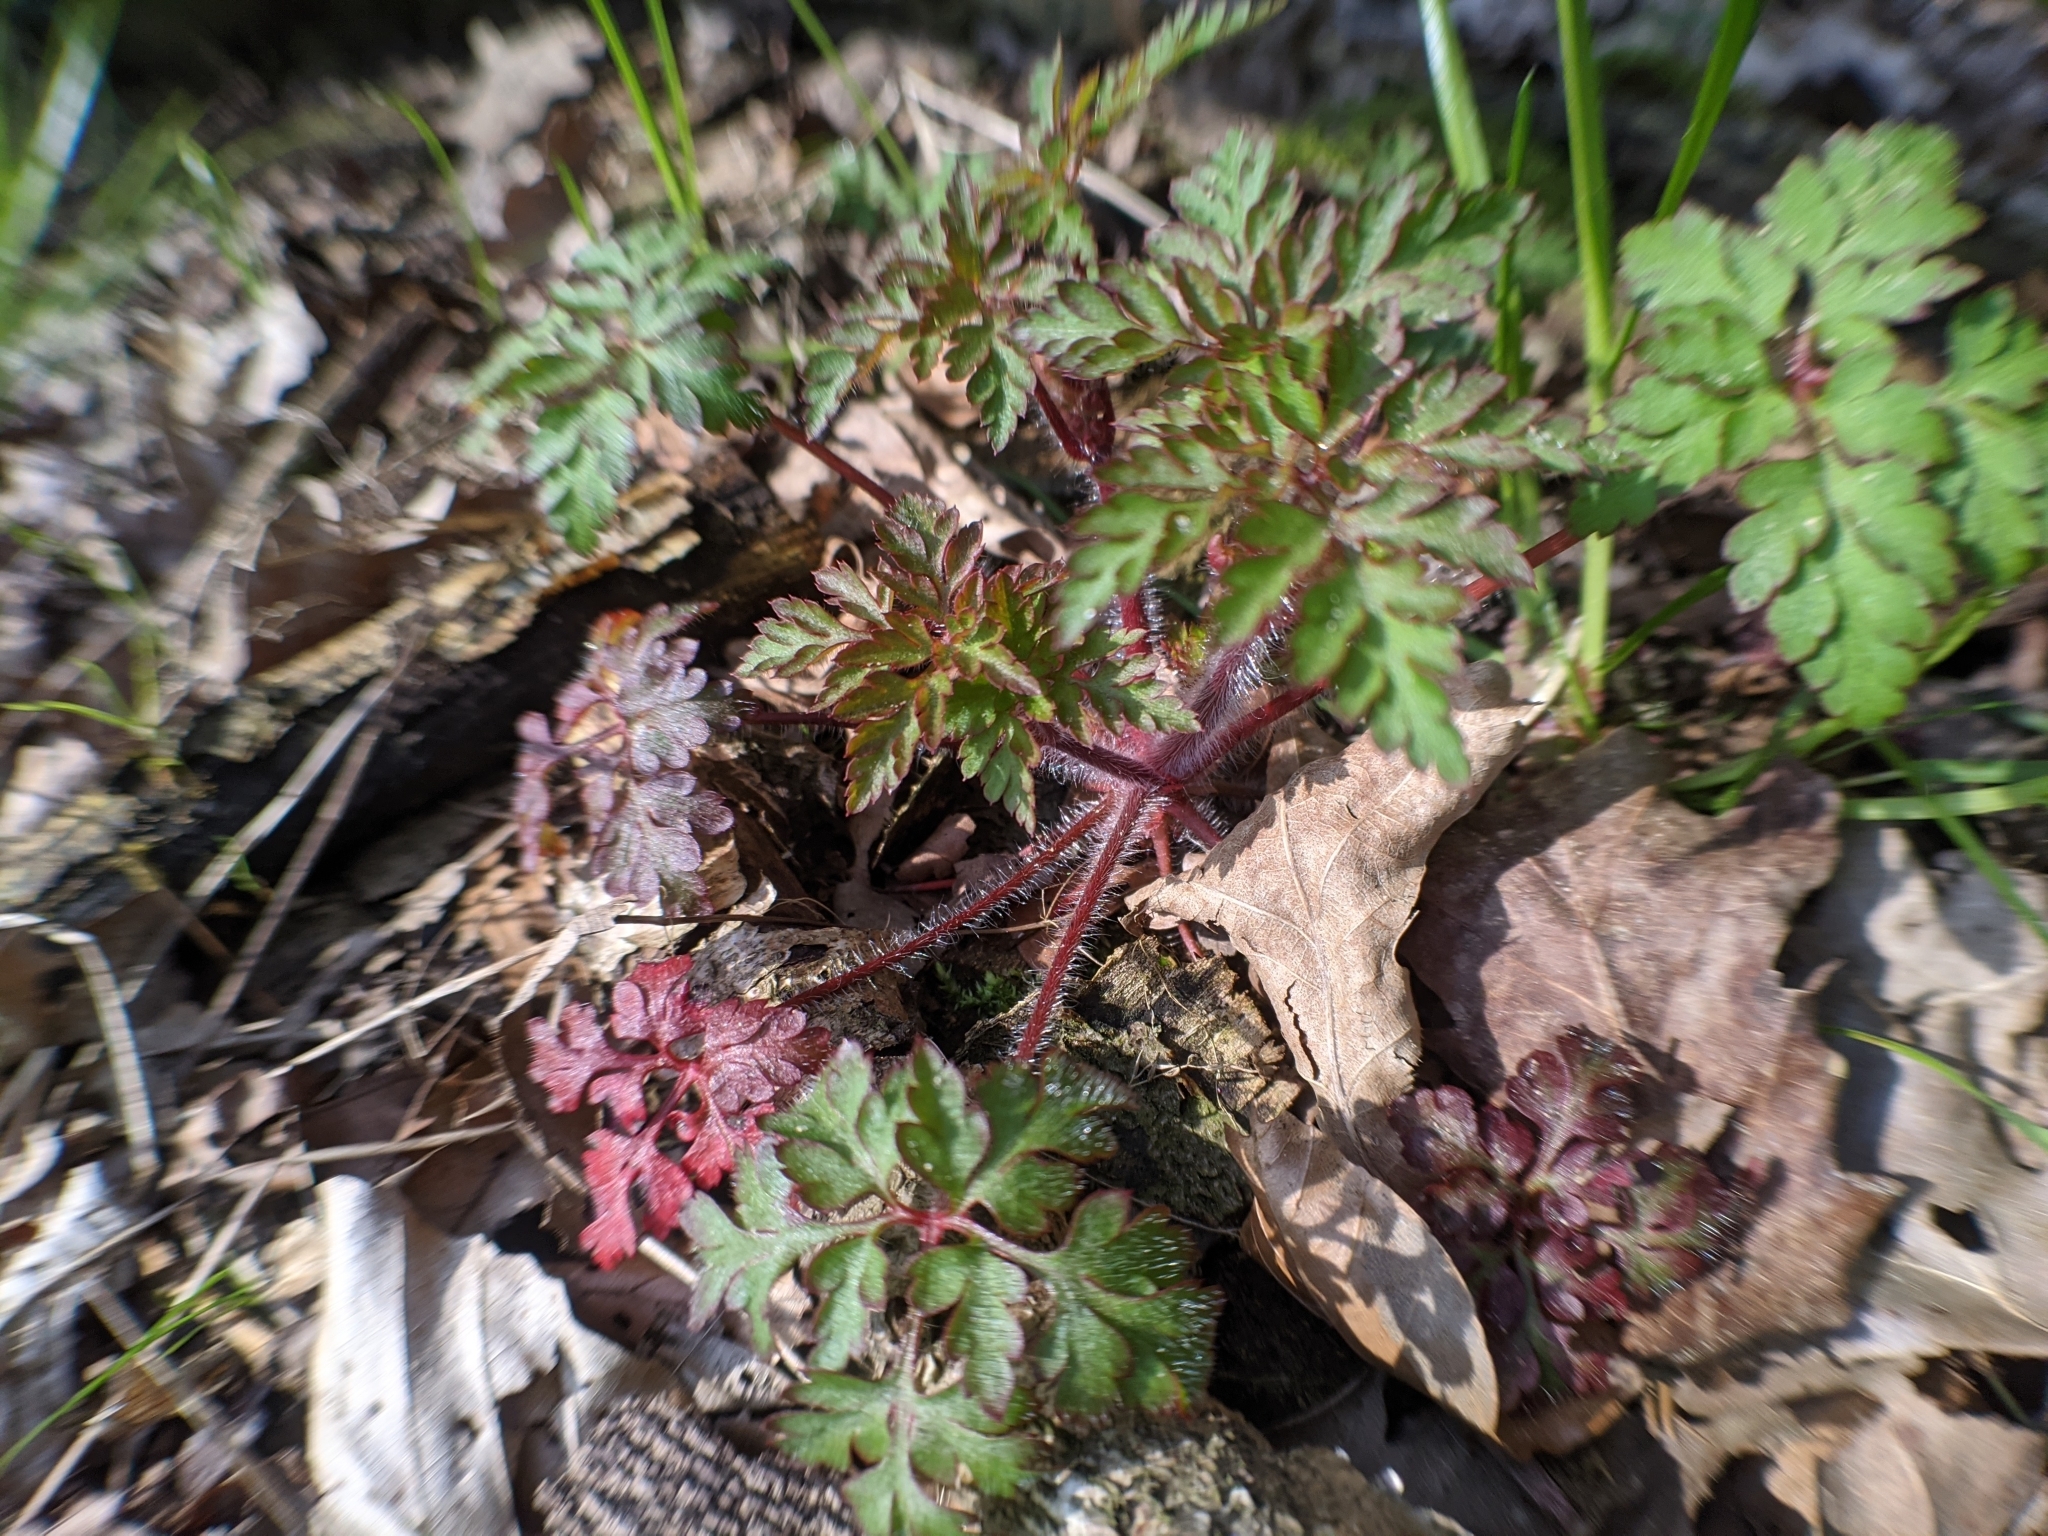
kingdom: Plantae
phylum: Tracheophyta
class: Magnoliopsida
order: Geraniales
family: Geraniaceae
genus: Geranium
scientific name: Geranium robertianum
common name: Herb-robert
